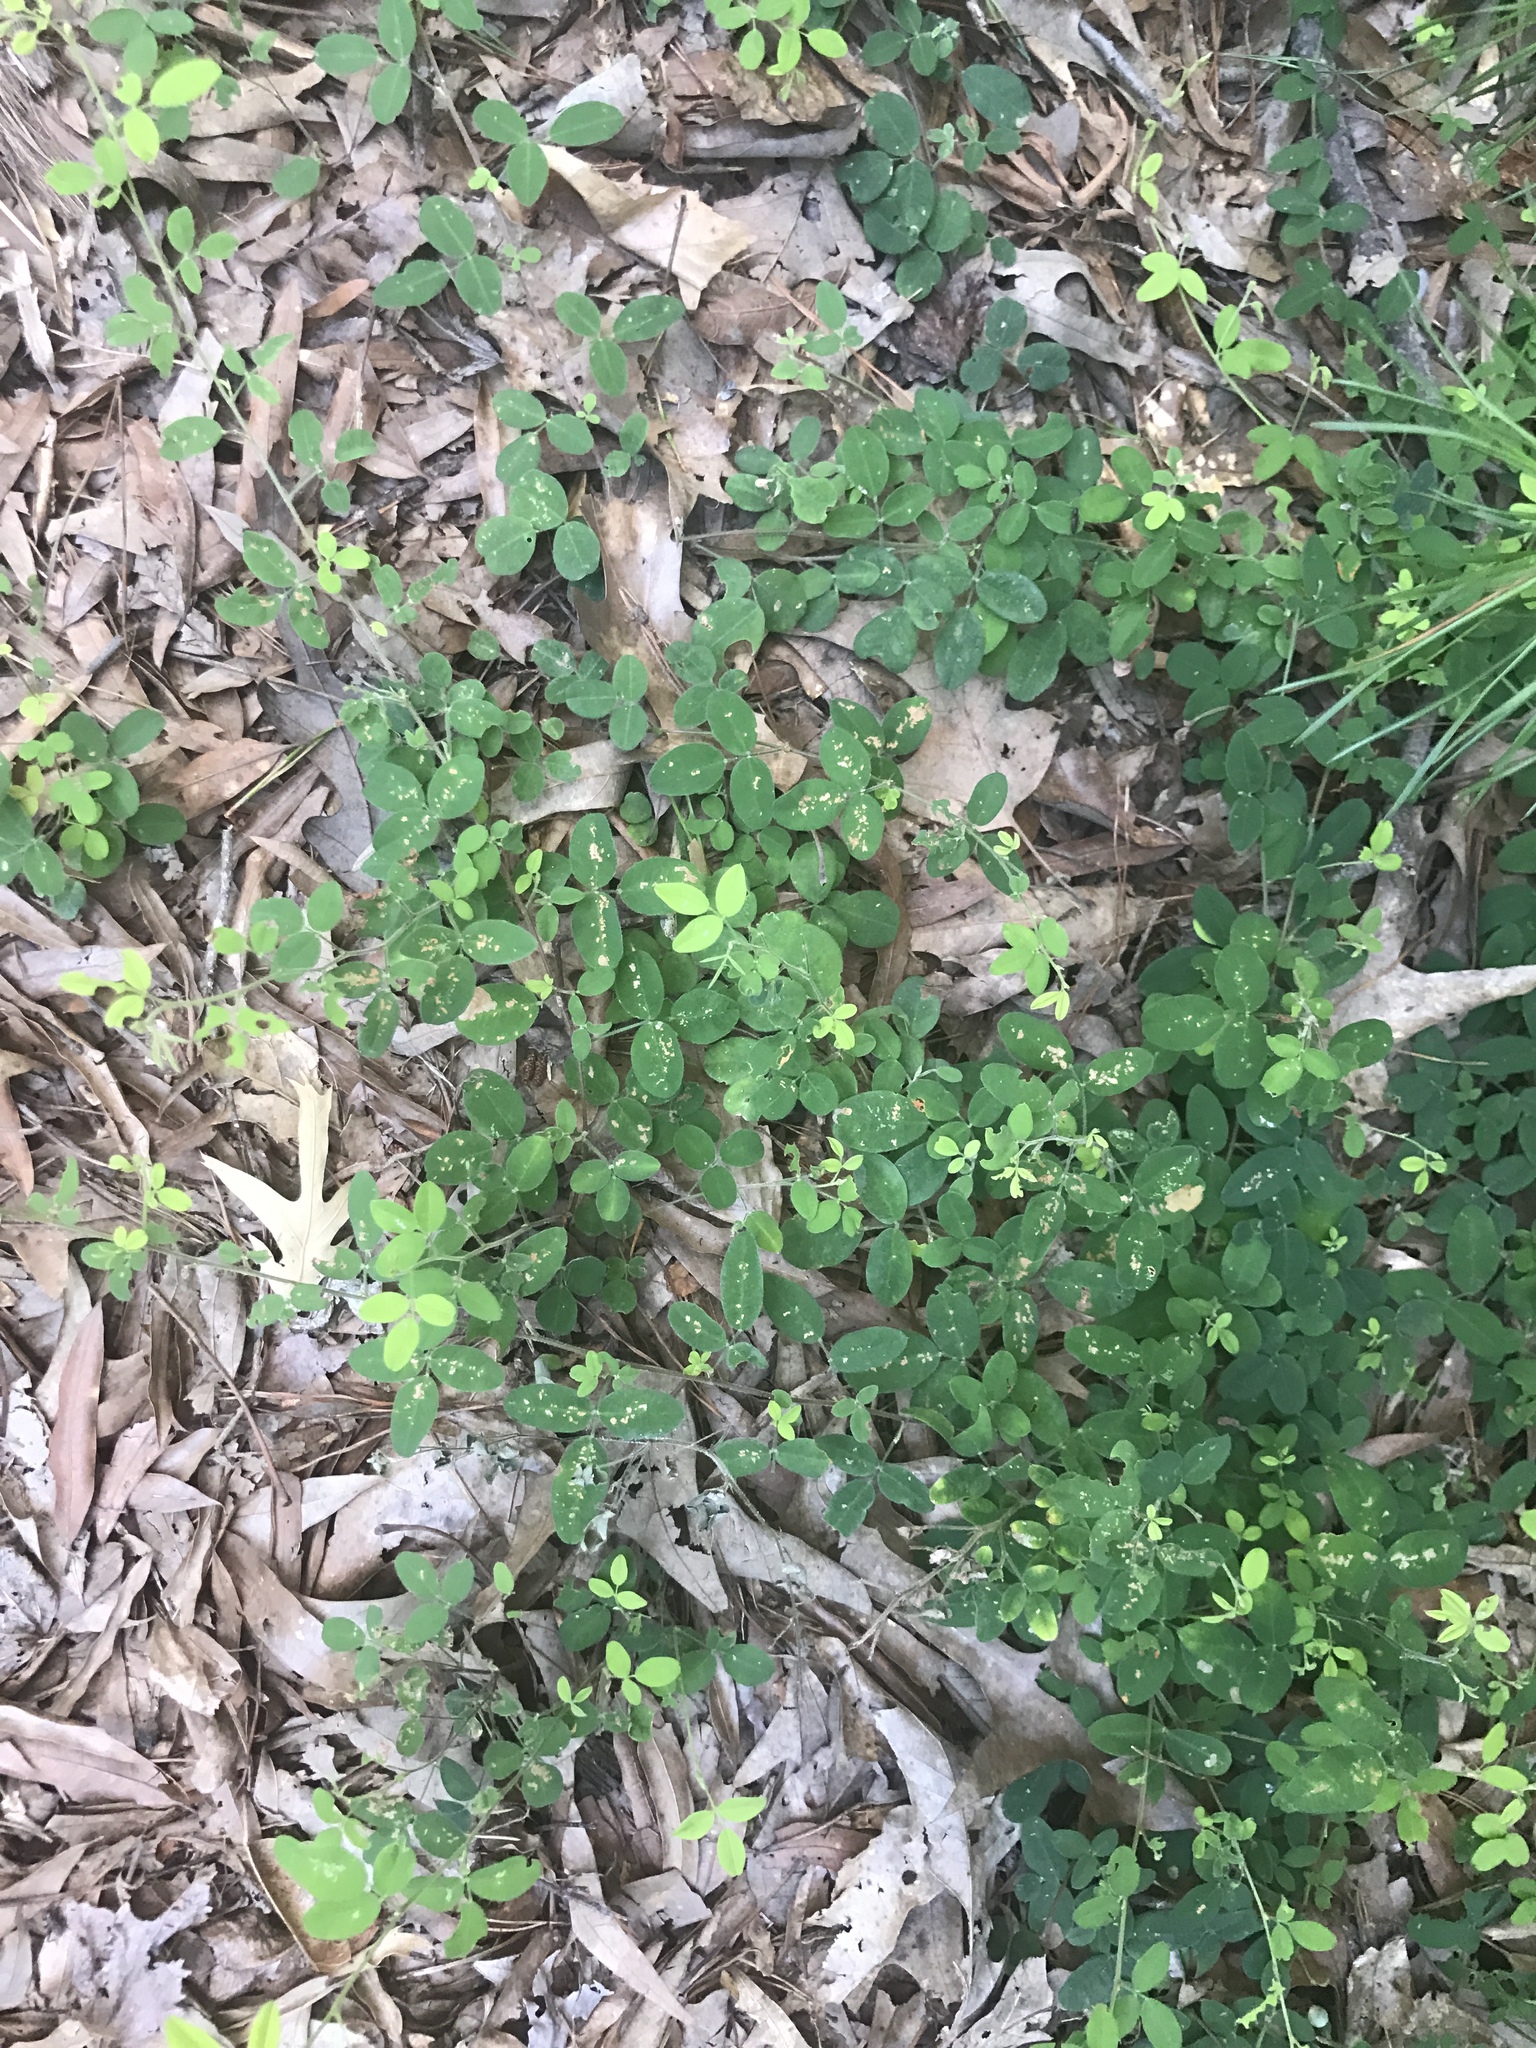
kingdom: Plantae
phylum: Tracheophyta
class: Magnoliopsida
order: Fabales
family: Fabaceae
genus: Lespedeza
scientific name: Lespedeza procumbens
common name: Downy trailing bush-clover
